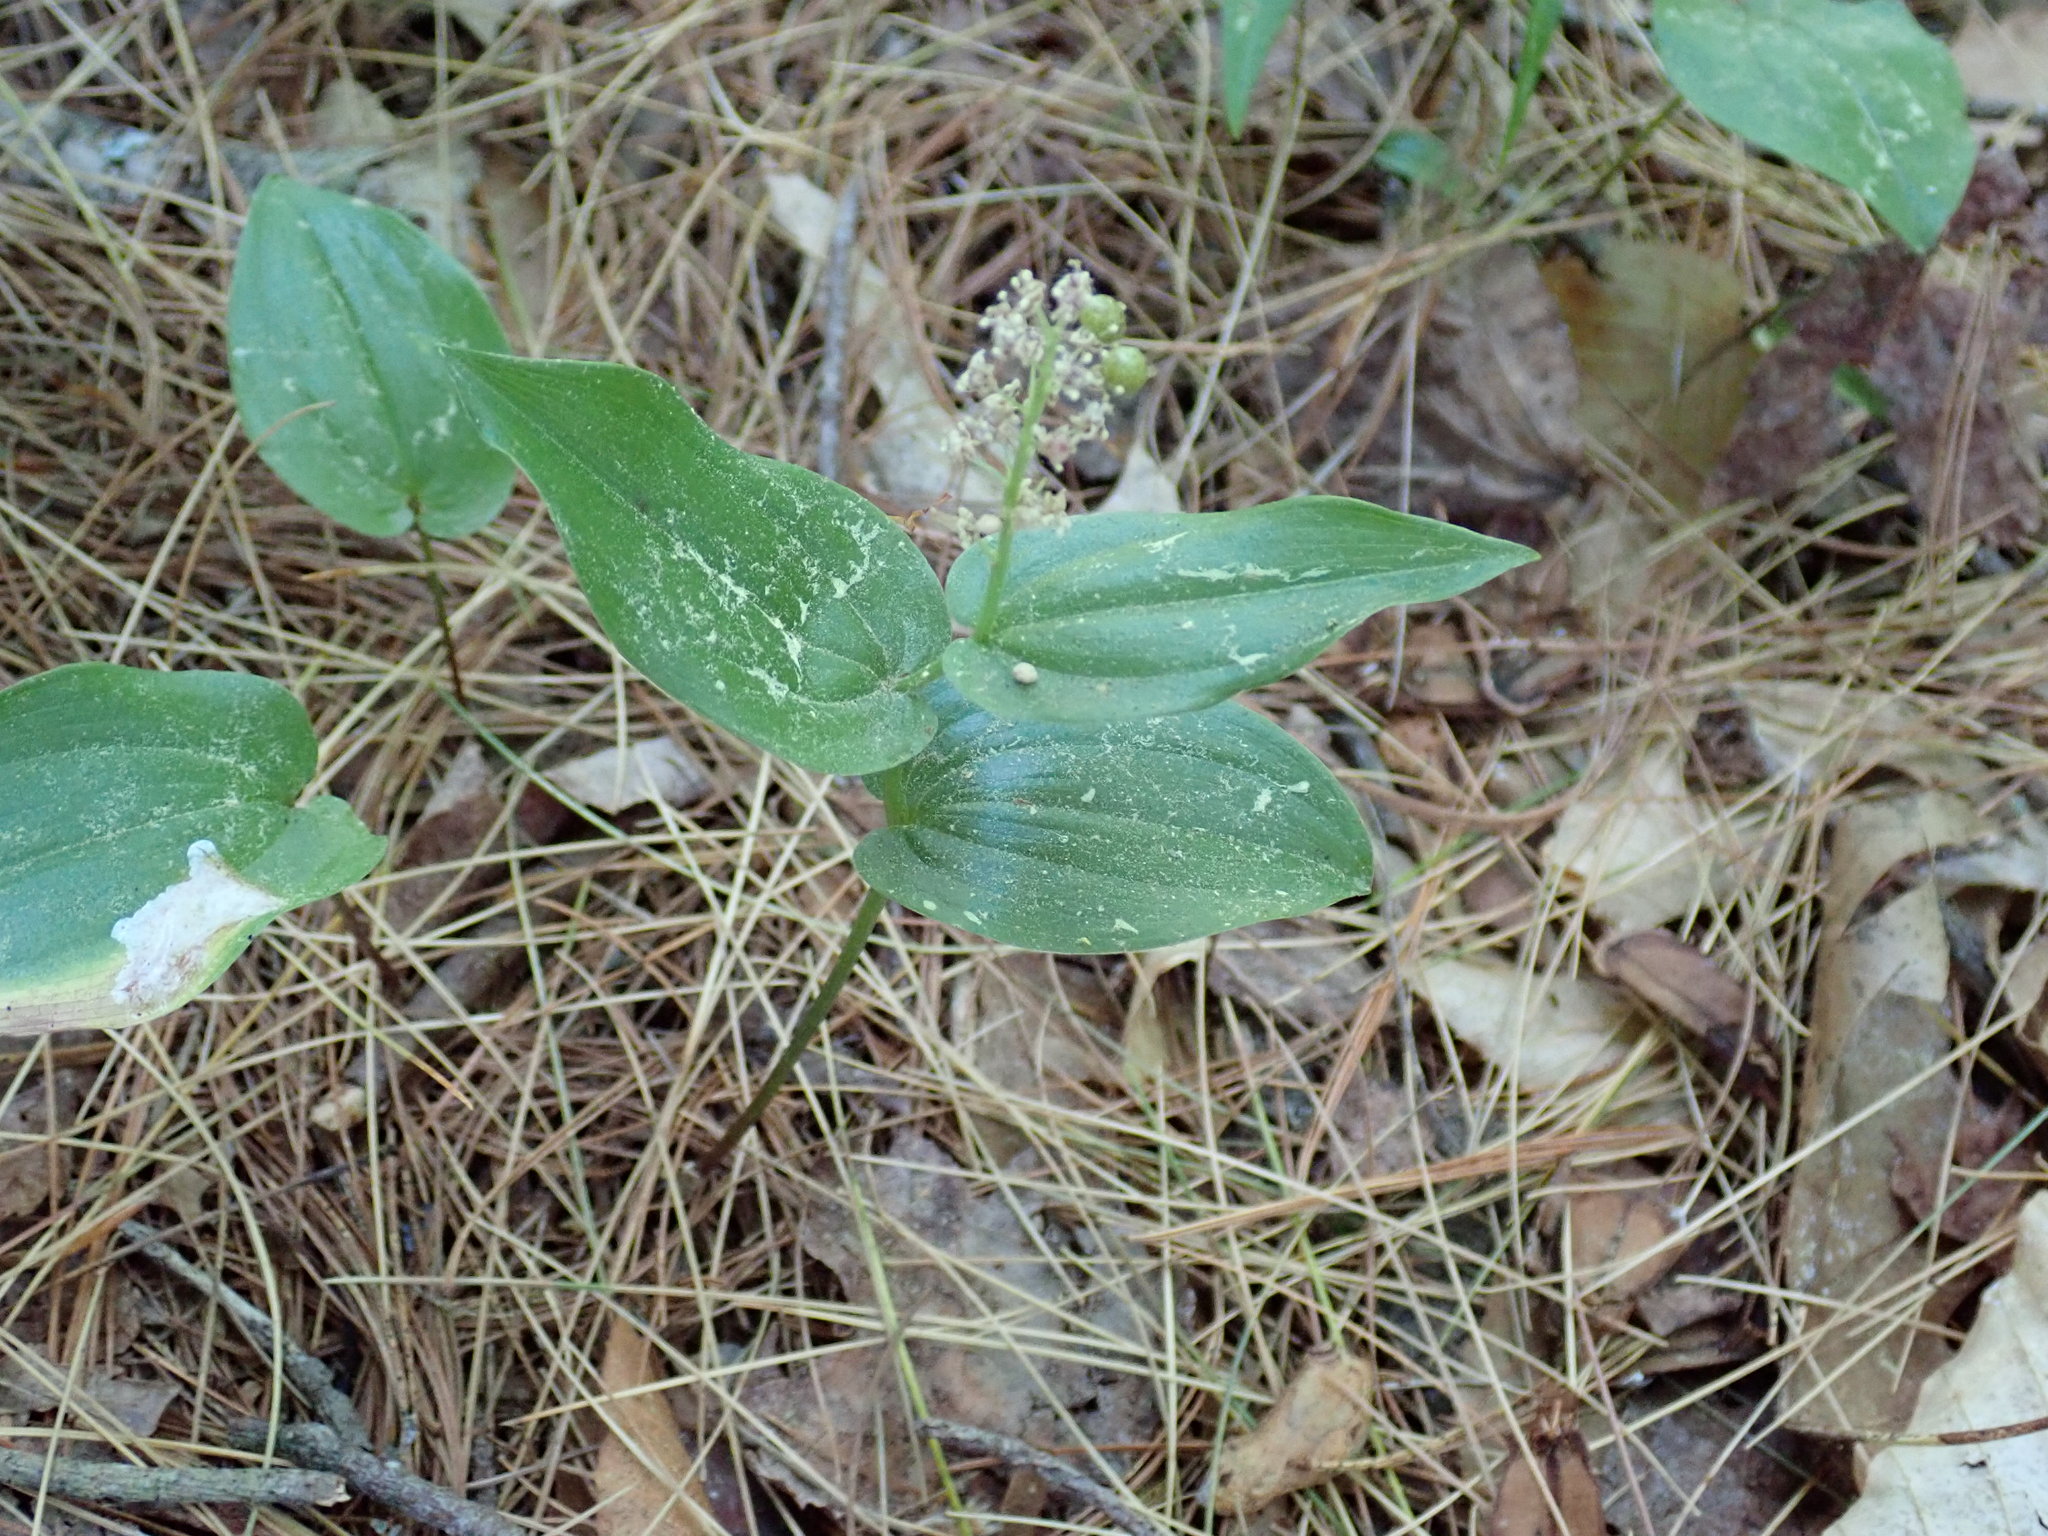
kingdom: Plantae
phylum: Tracheophyta
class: Liliopsida
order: Asparagales
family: Asparagaceae
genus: Maianthemum
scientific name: Maianthemum canadense
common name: False lily-of-the-valley
